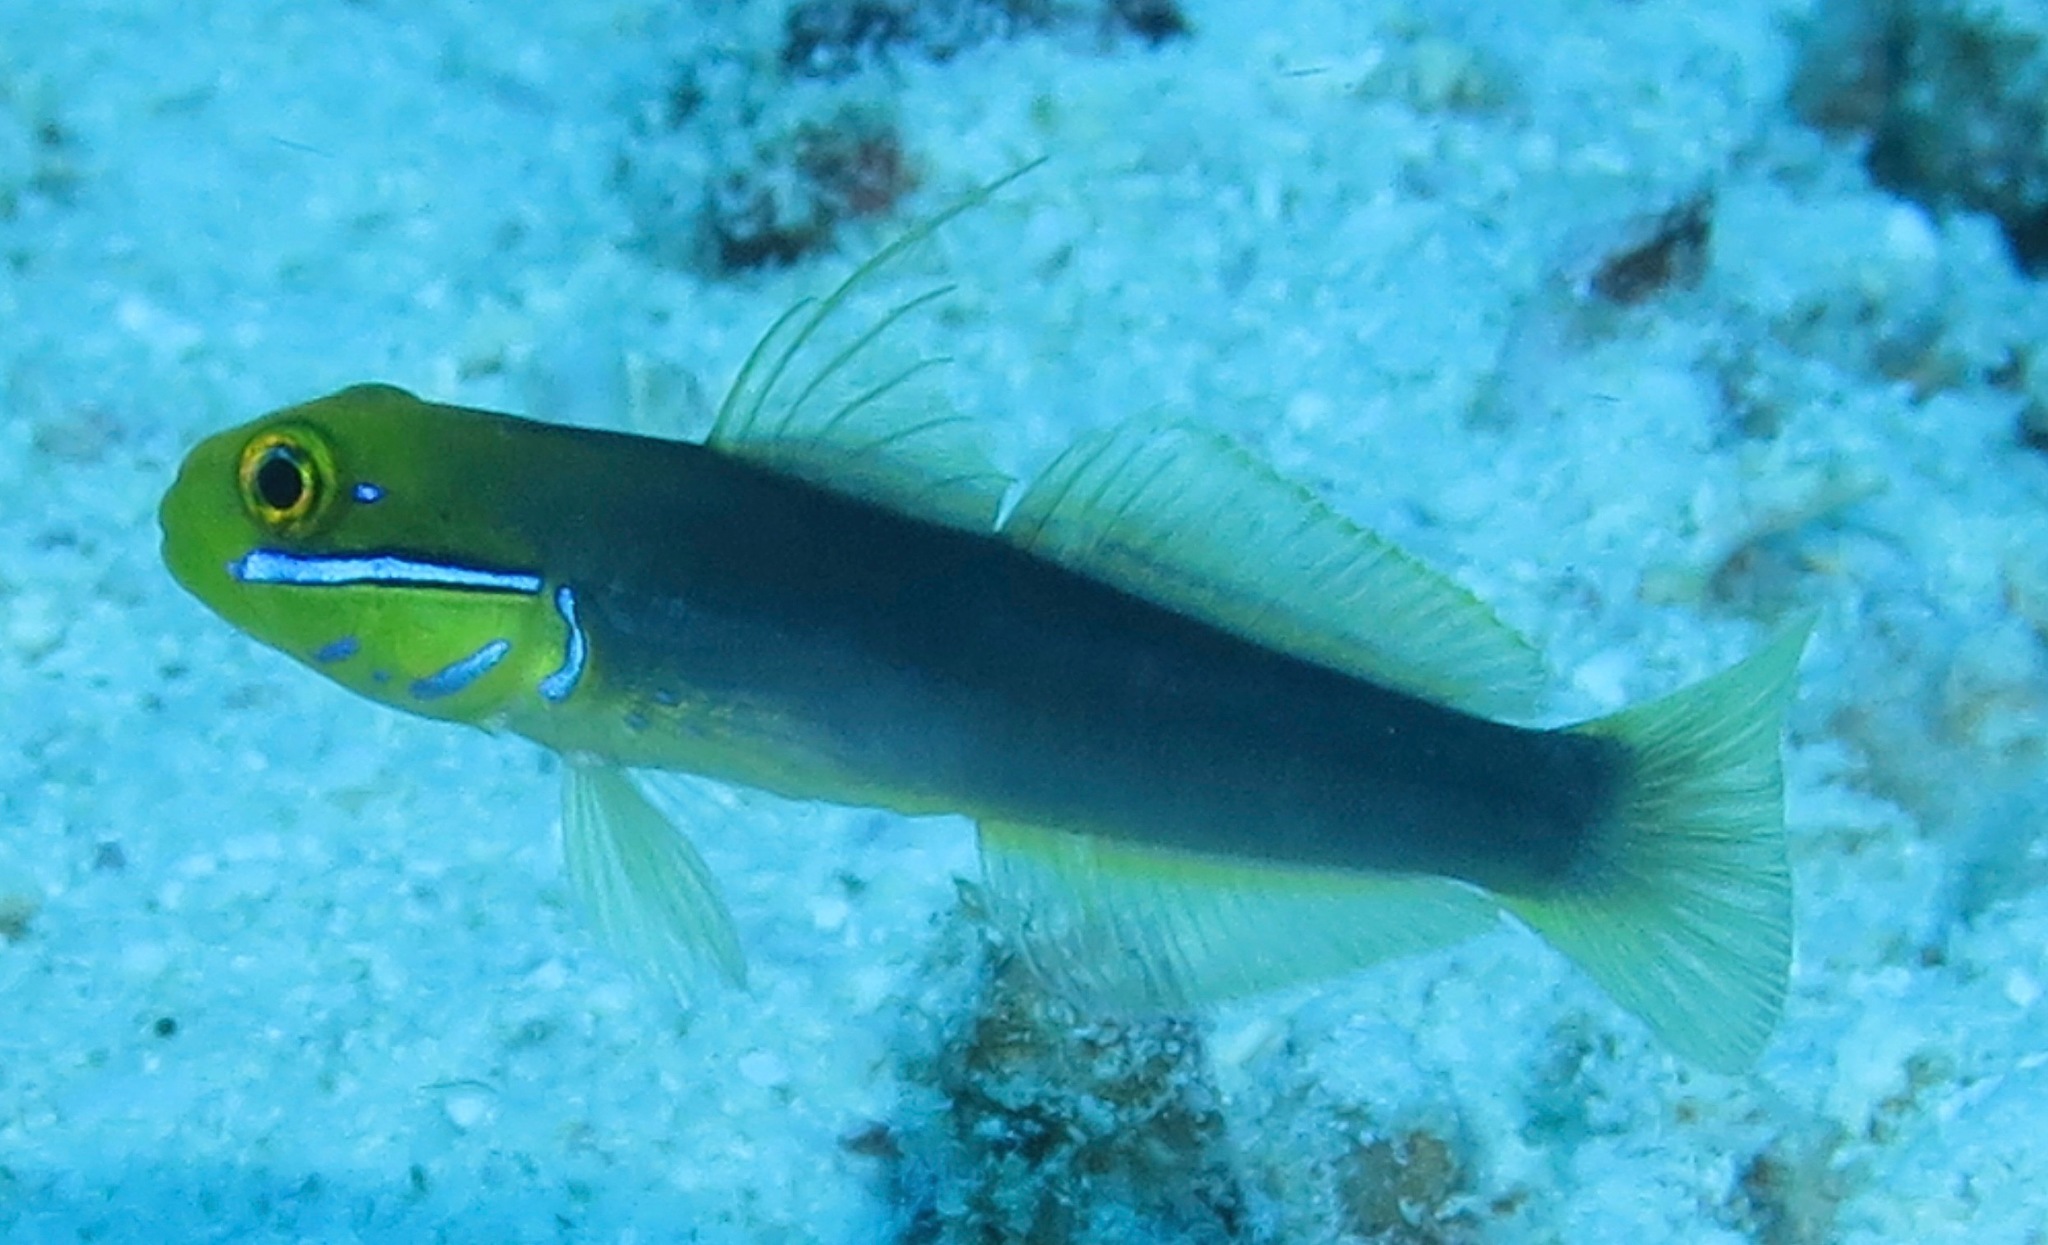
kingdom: Animalia
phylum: Chordata
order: Perciformes
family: Gobiidae
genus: Valenciennea
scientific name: Valenciennea strigata
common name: Blueband goby
